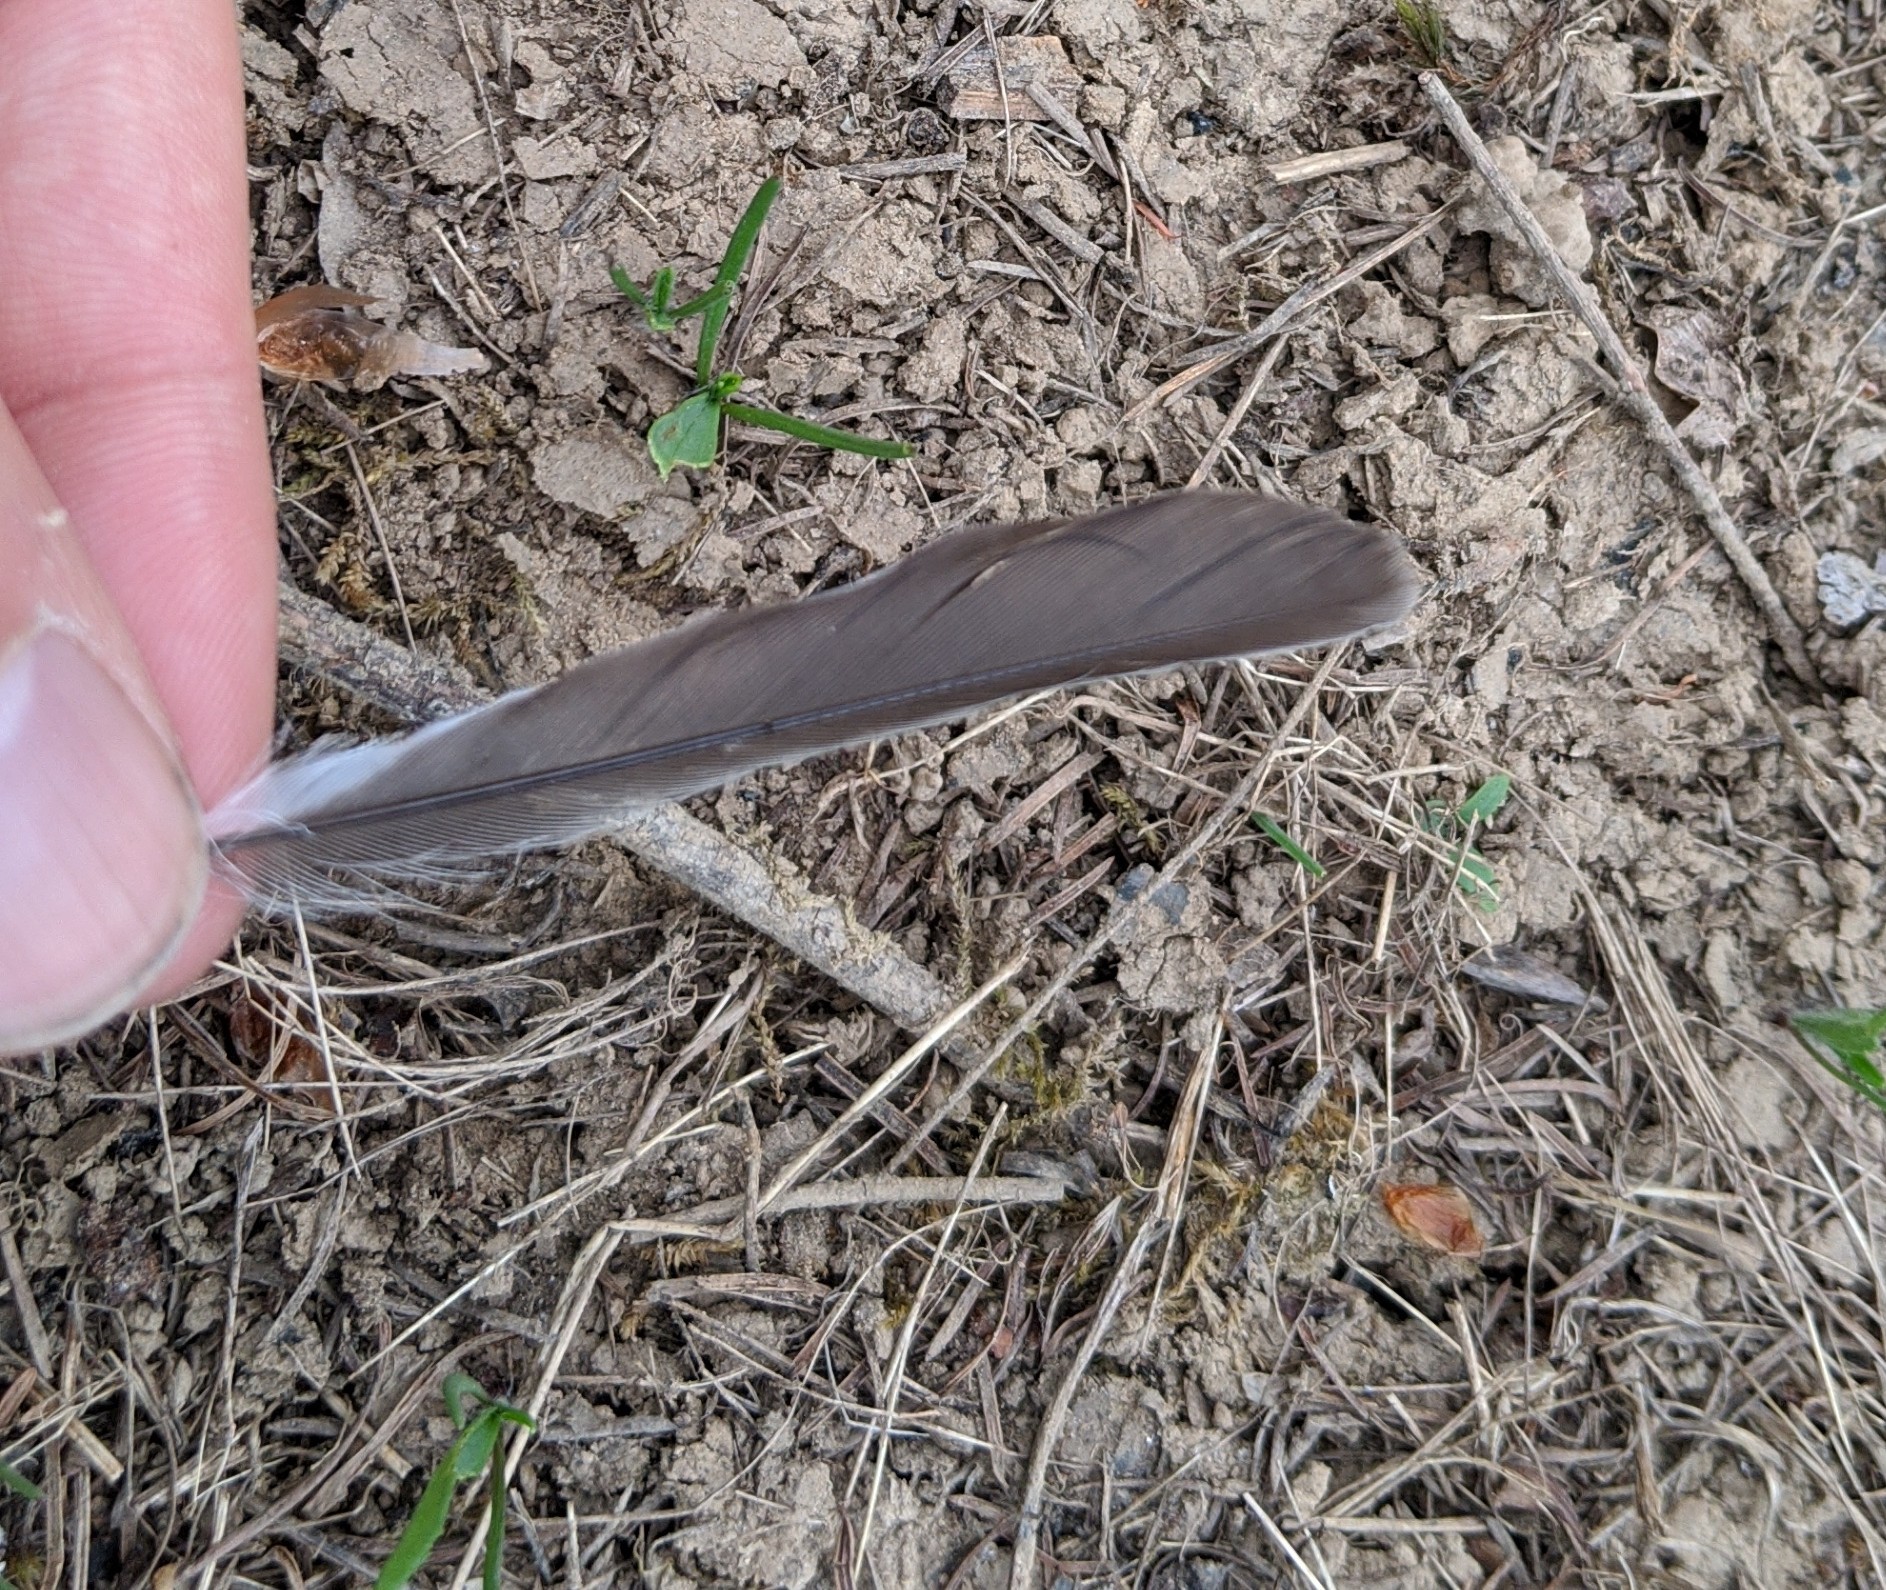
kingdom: Animalia
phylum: Chordata
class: Aves
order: Passeriformes
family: Passerellidae
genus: Junco
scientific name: Junco hyemalis
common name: Dark-eyed junco
